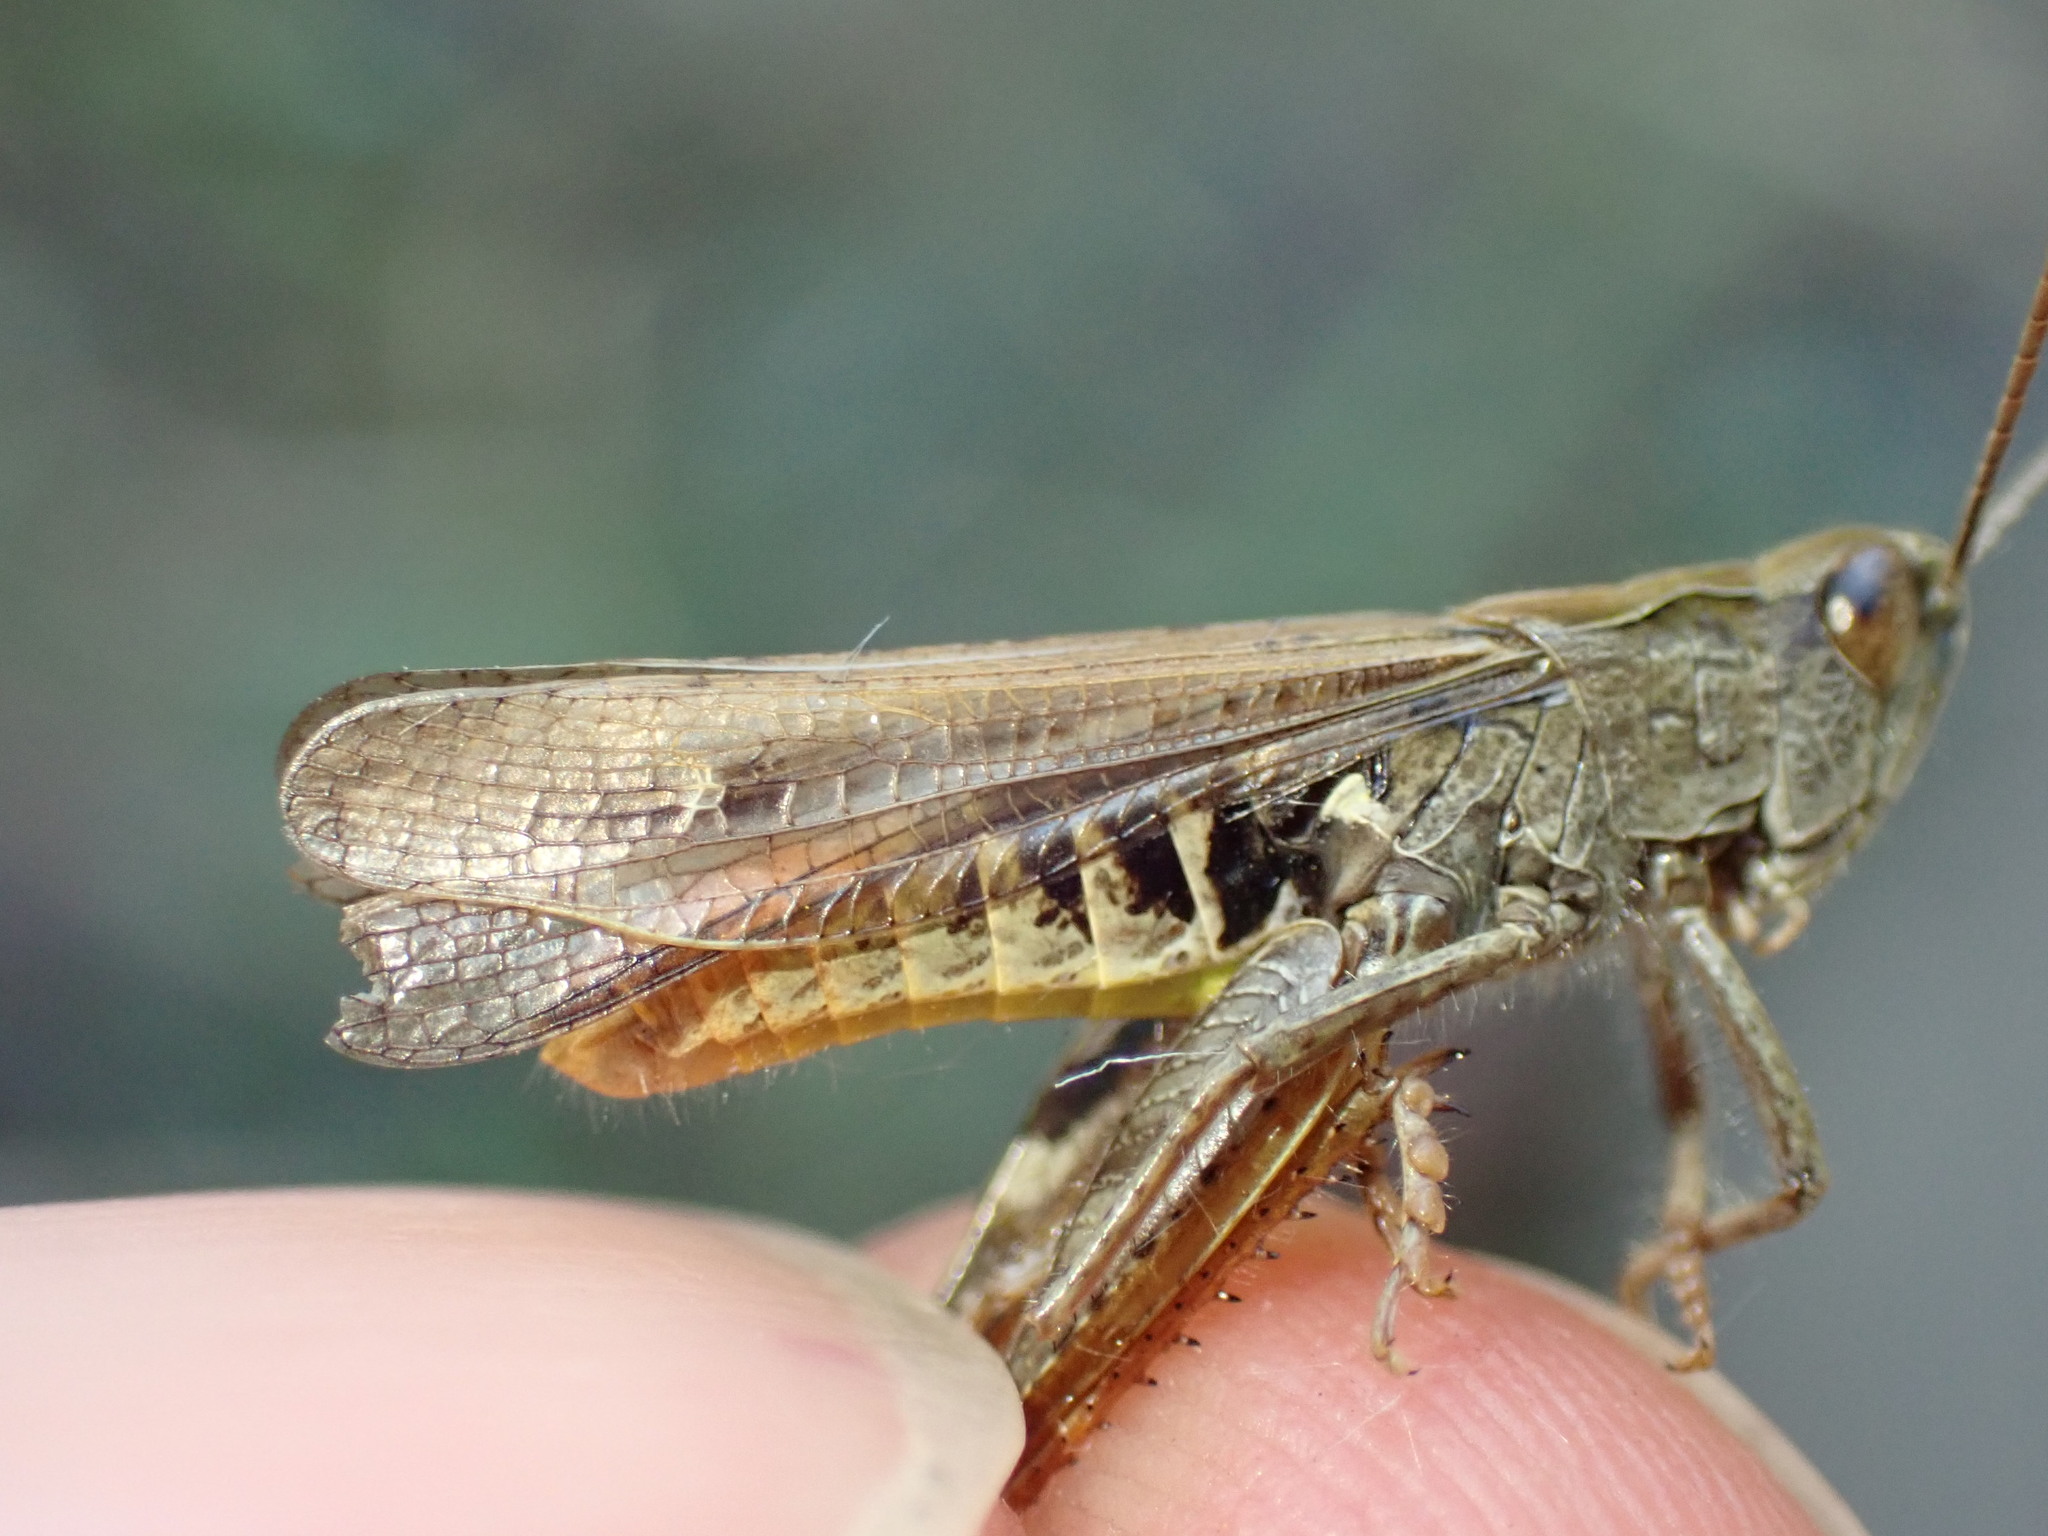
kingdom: Animalia
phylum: Arthropoda
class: Insecta
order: Orthoptera
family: Acrididae
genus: Chorthippus
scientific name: Chorthippus biguttulus
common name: Bow-winged grasshopper
